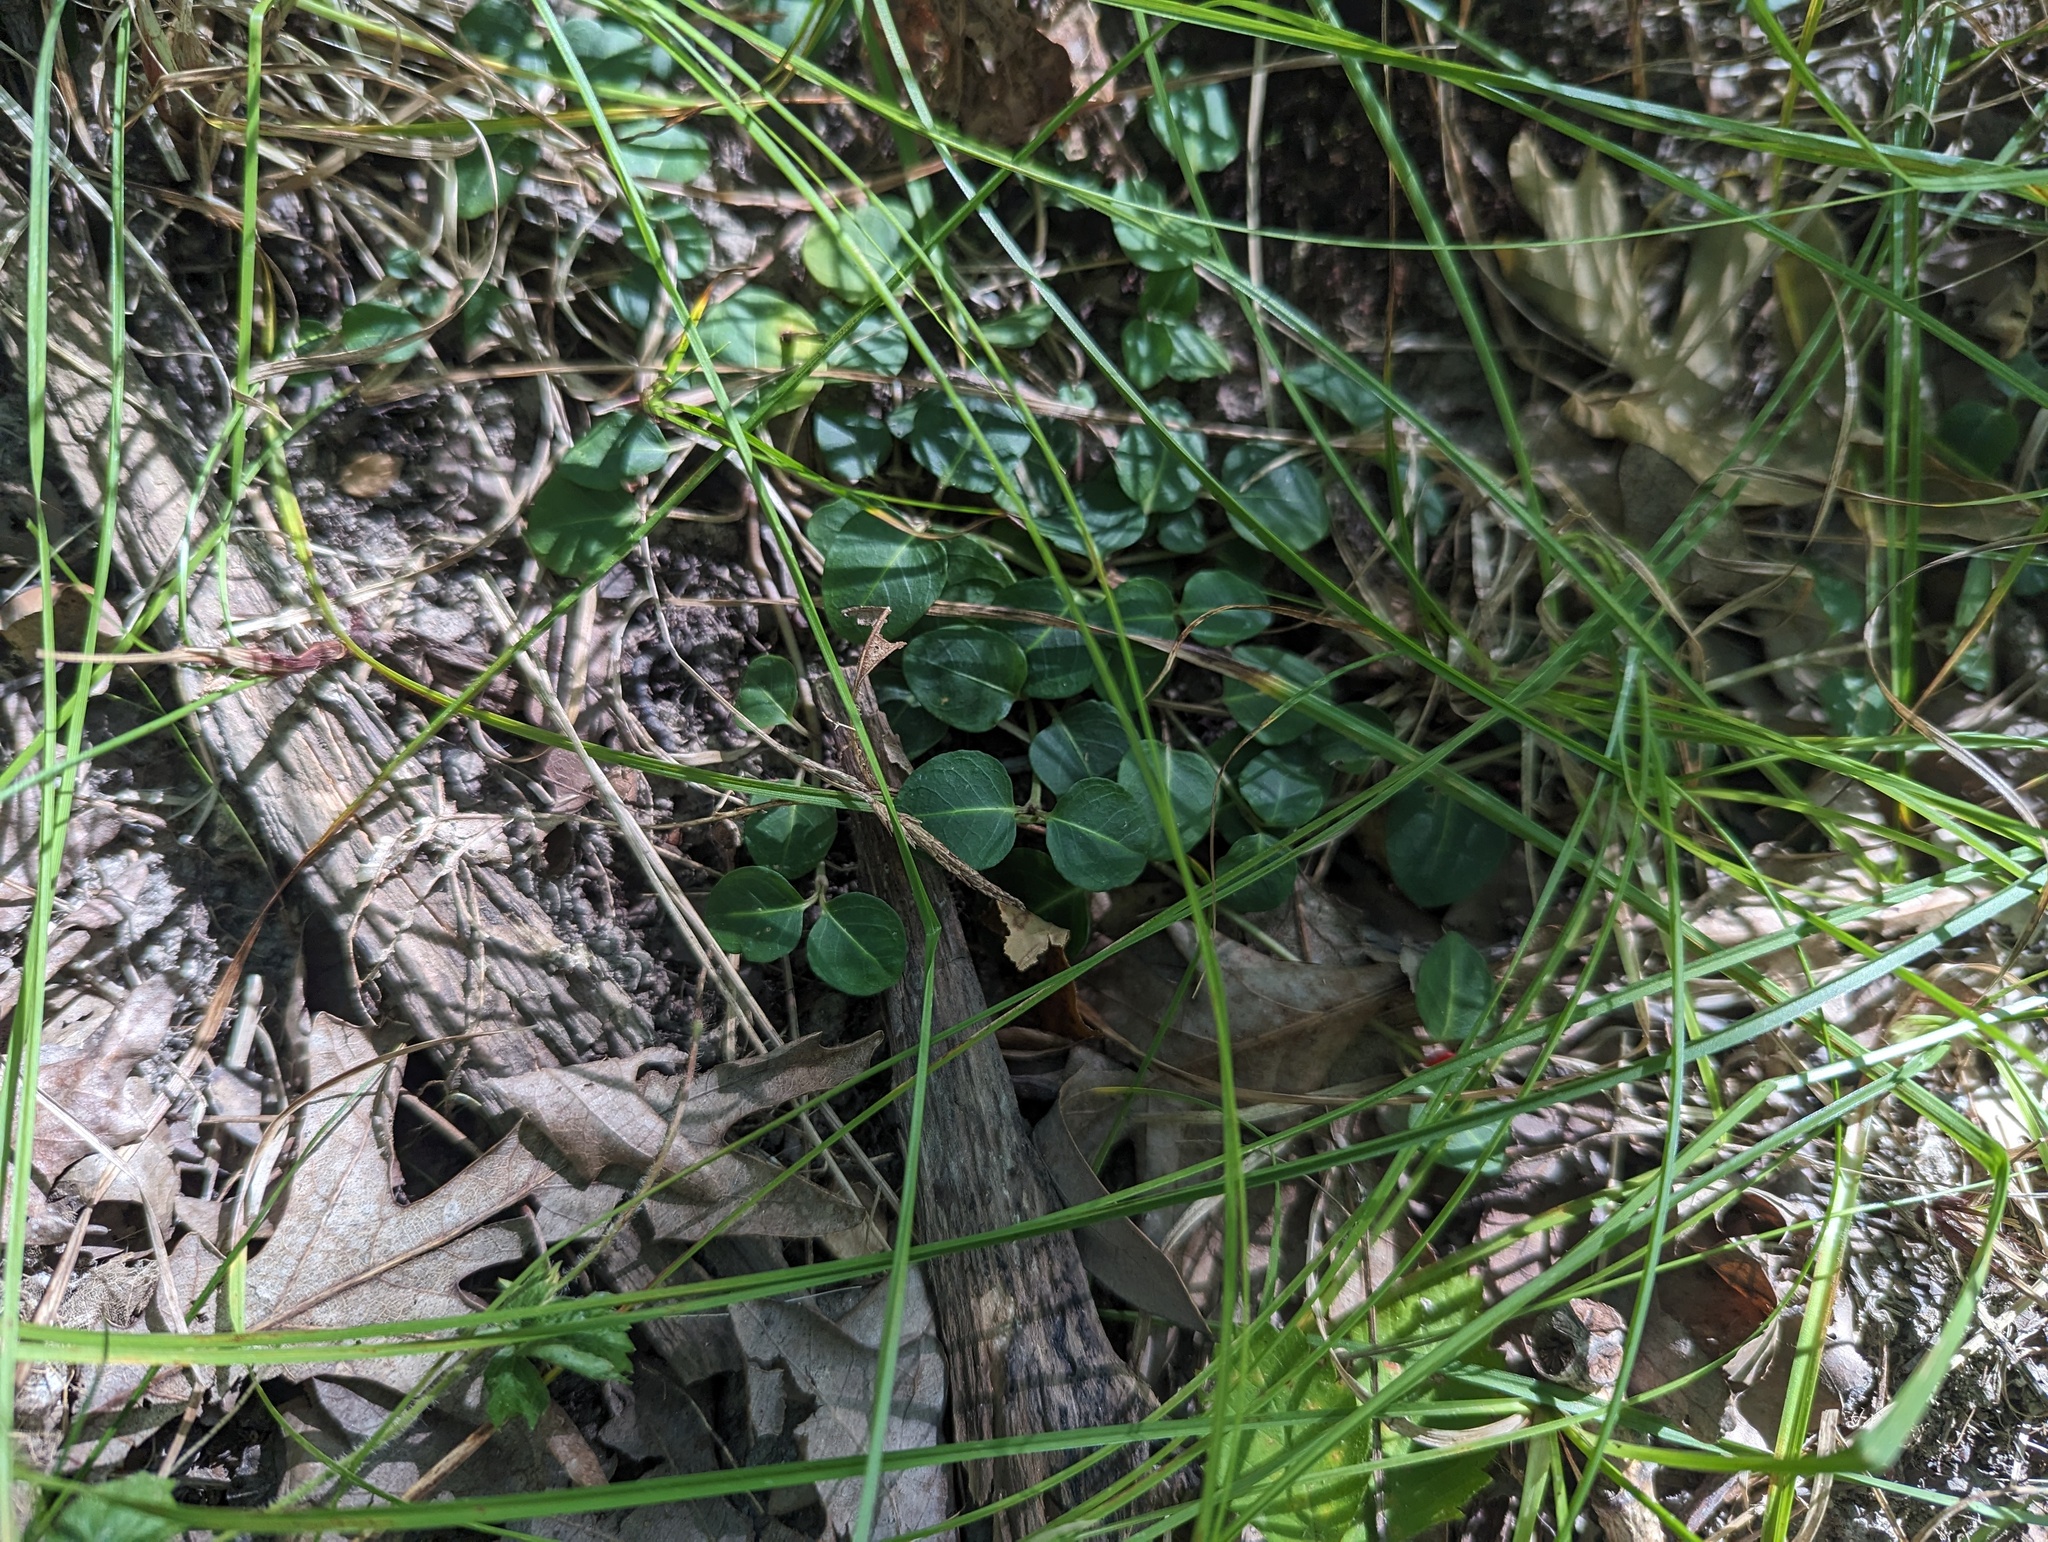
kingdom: Plantae
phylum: Tracheophyta
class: Magnoliopsida
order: Gentianales
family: Rubiaceae
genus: Mitchella
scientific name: Mitchella repens
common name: Partridge-berry
